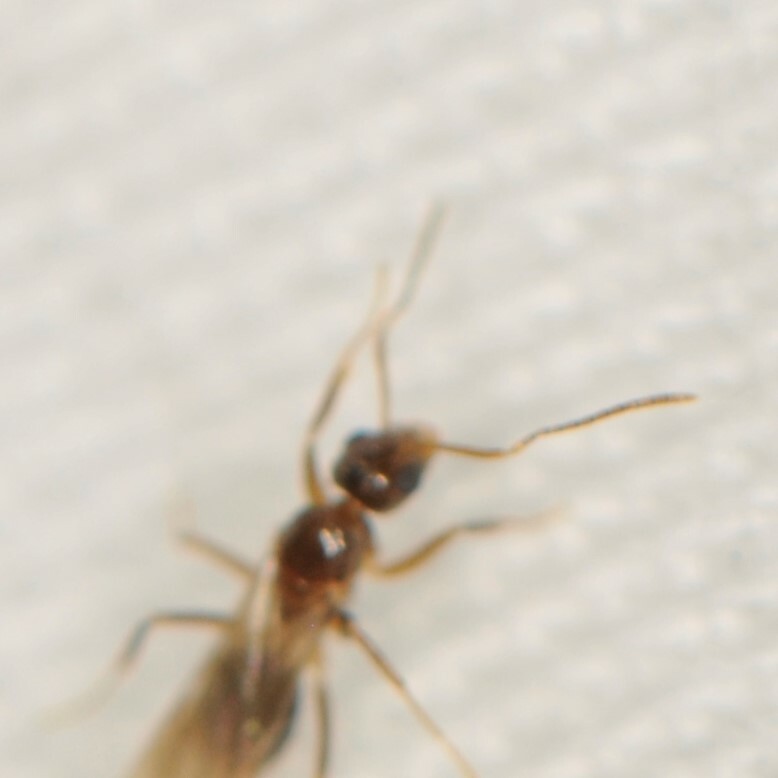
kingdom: Animalia
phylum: Arthropoda
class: Insecta
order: Hymenoptera
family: Formicidae
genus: Nylanderia
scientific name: Nylanderia
